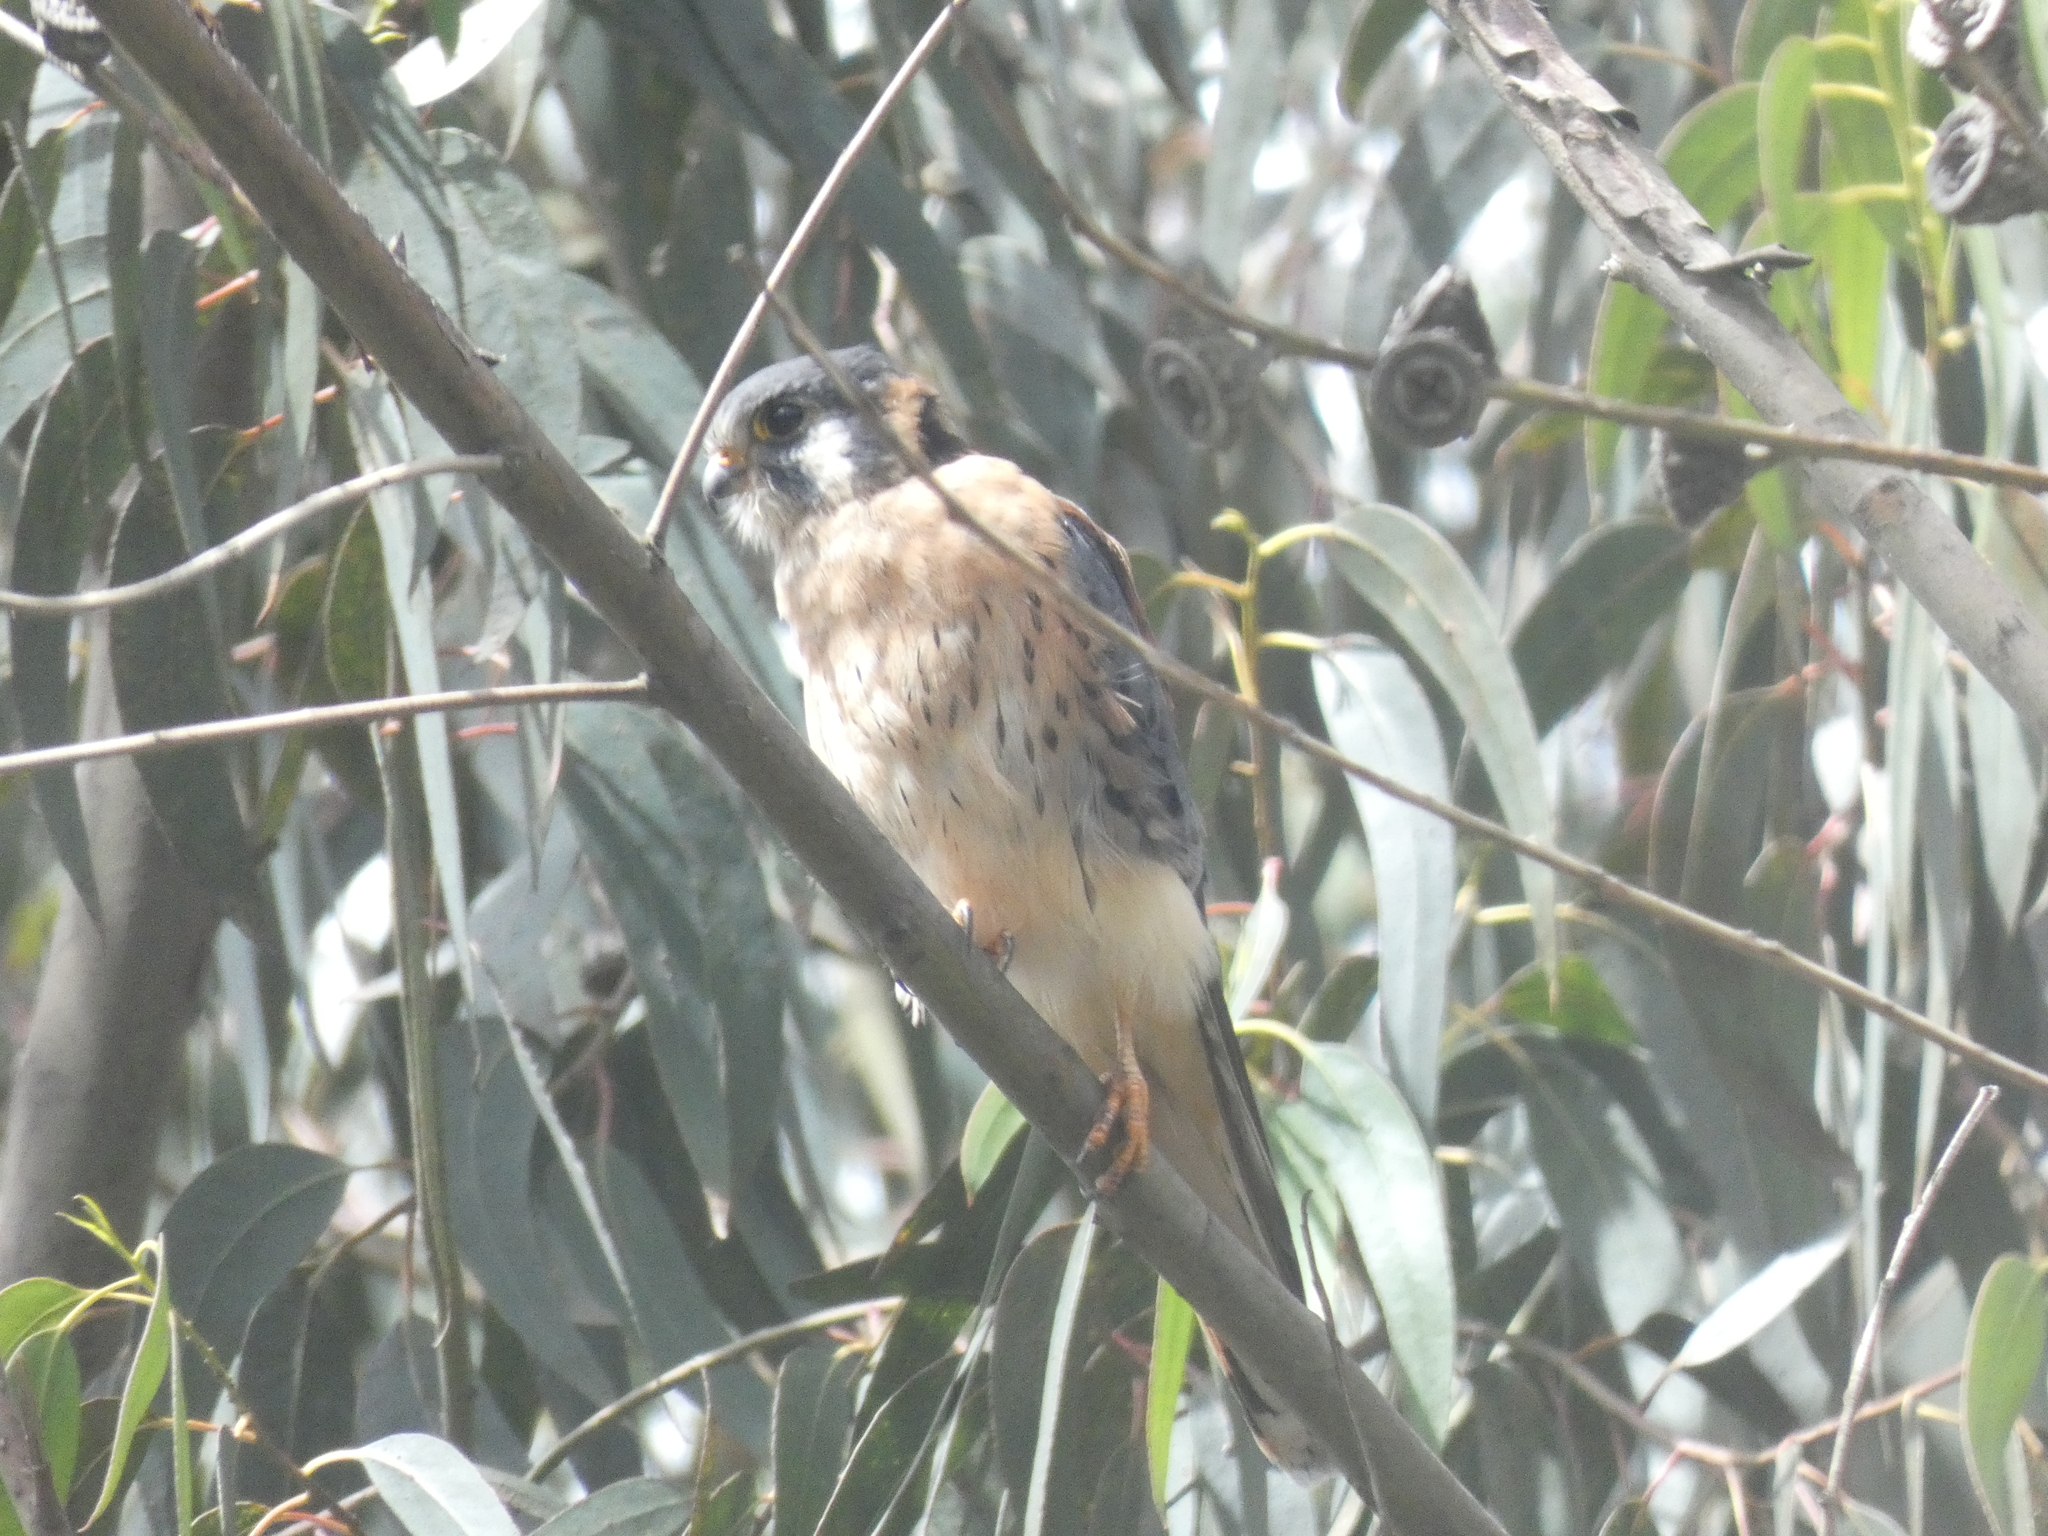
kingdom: Animalia
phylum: Chordata
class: Aves
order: Falconiformes
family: Falconidae
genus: Falco
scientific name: Falco sparverius
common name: American kestrel
